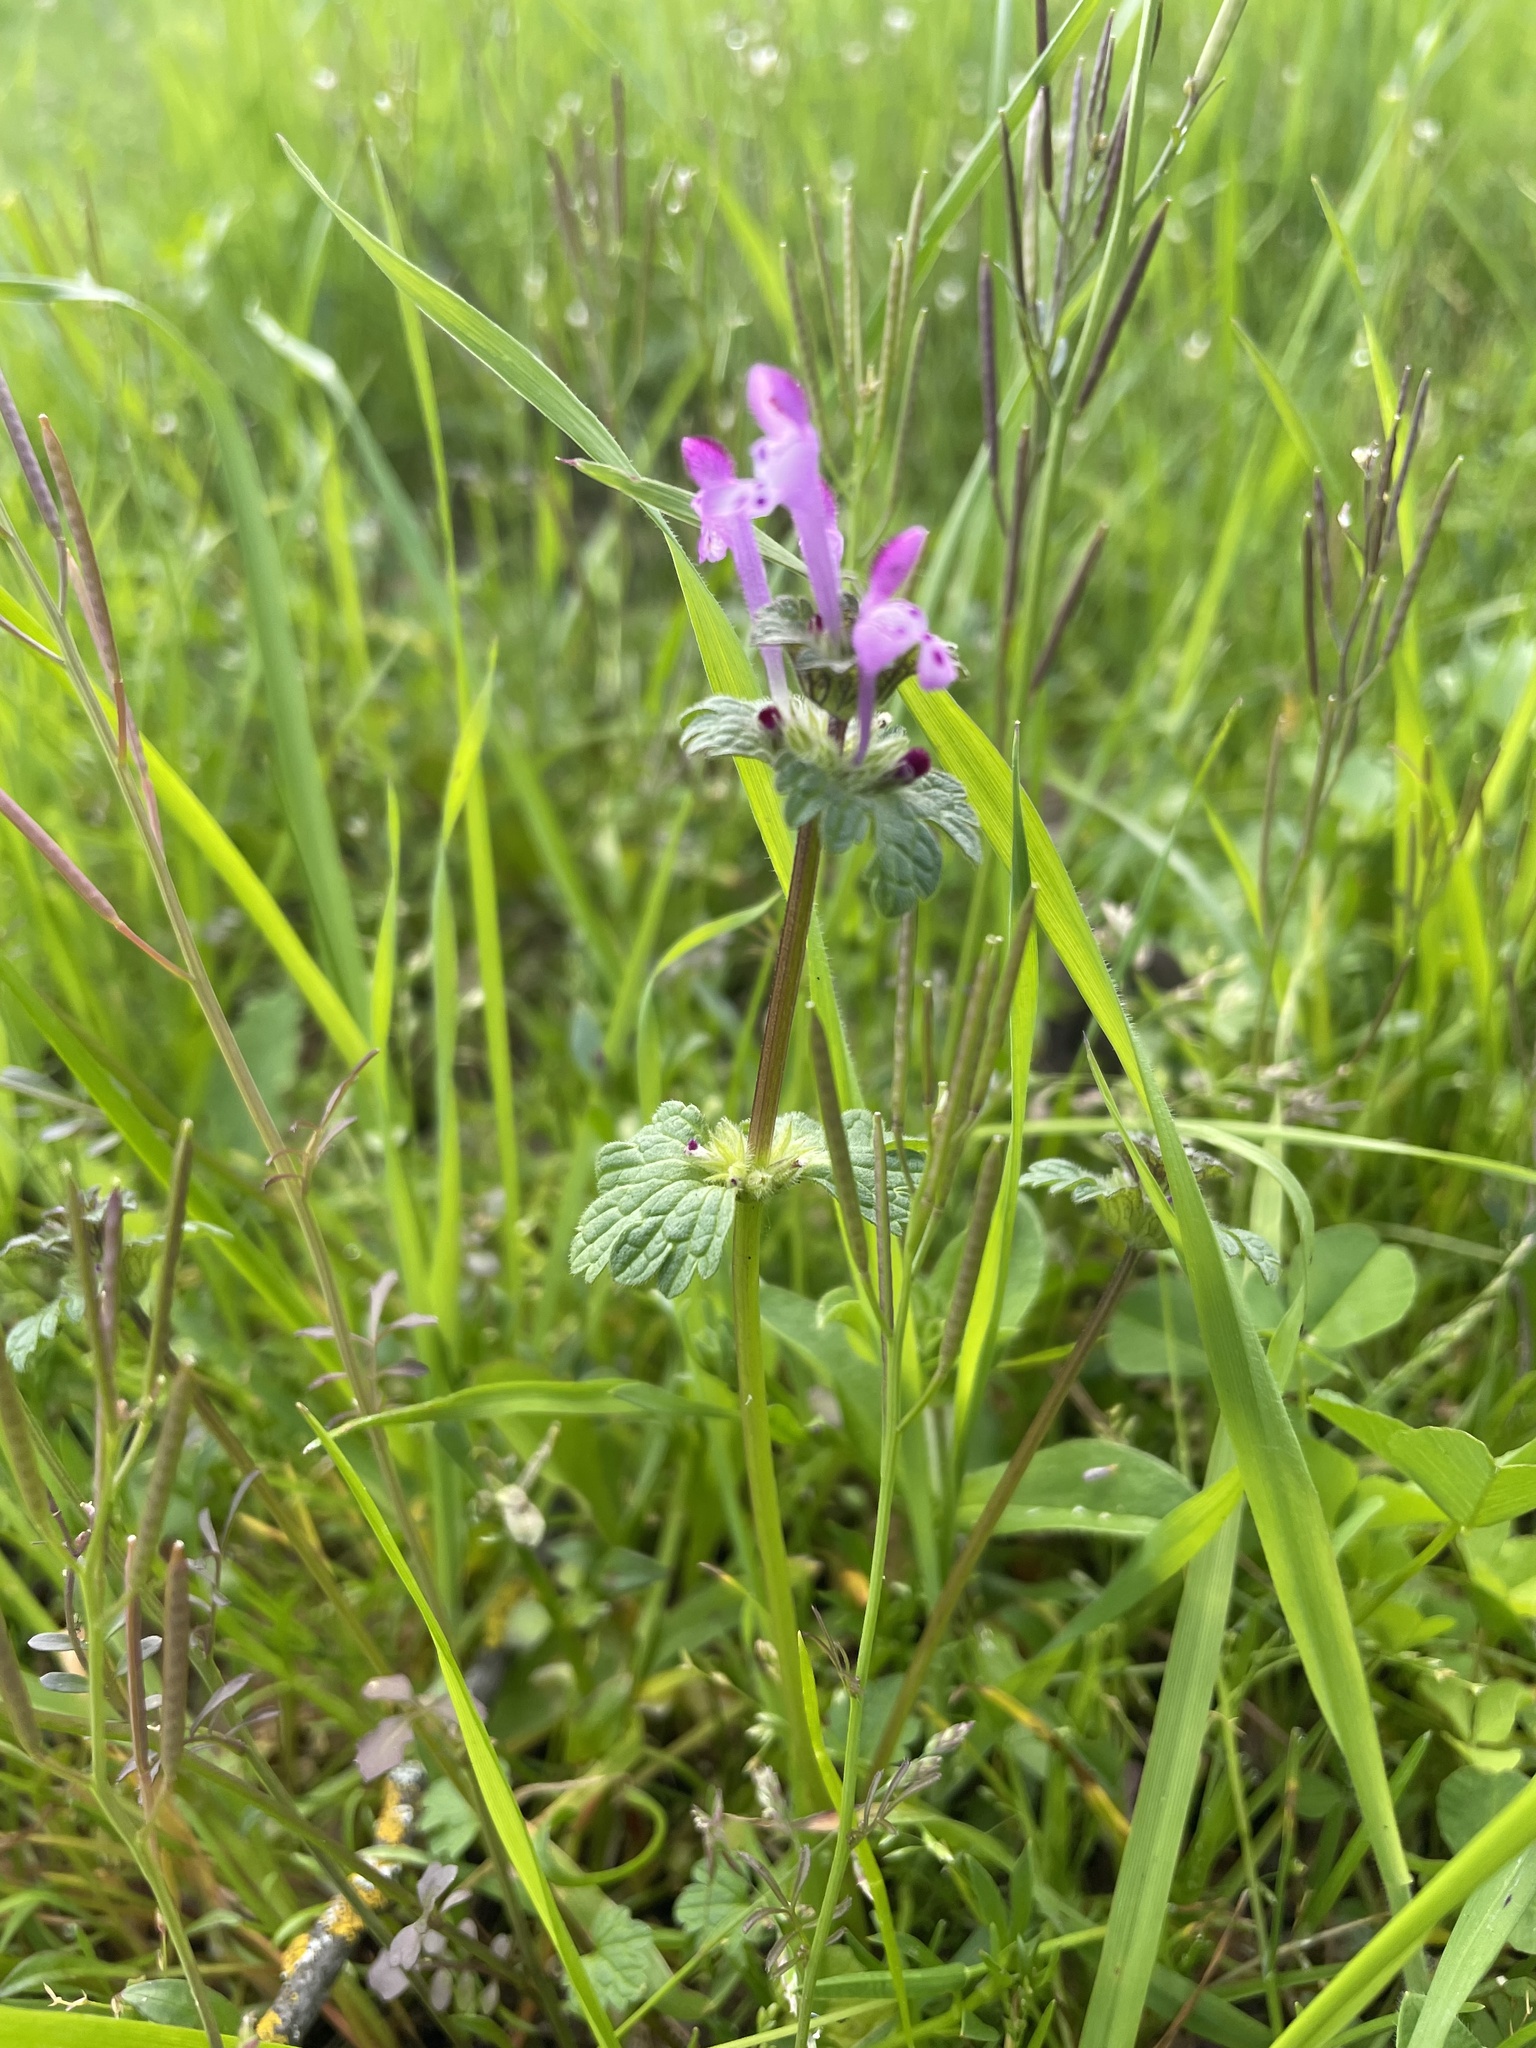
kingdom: Plantae
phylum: Tracheophyta
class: Magnoliopsida
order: Lamiales
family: Lamiaceae
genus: Lamium
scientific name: Lamium amplexicaule
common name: Henbit dead-nettle
